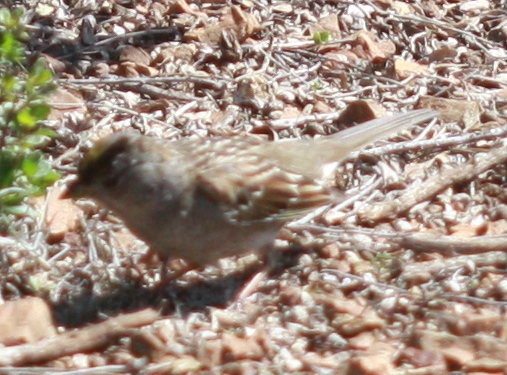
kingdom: Animalia
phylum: Chordata
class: Aves
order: Passeriformes
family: Passerellidae
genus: Zonotrichia
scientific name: Zonotrichia atricapilla
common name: Golden-crowned sparrow
